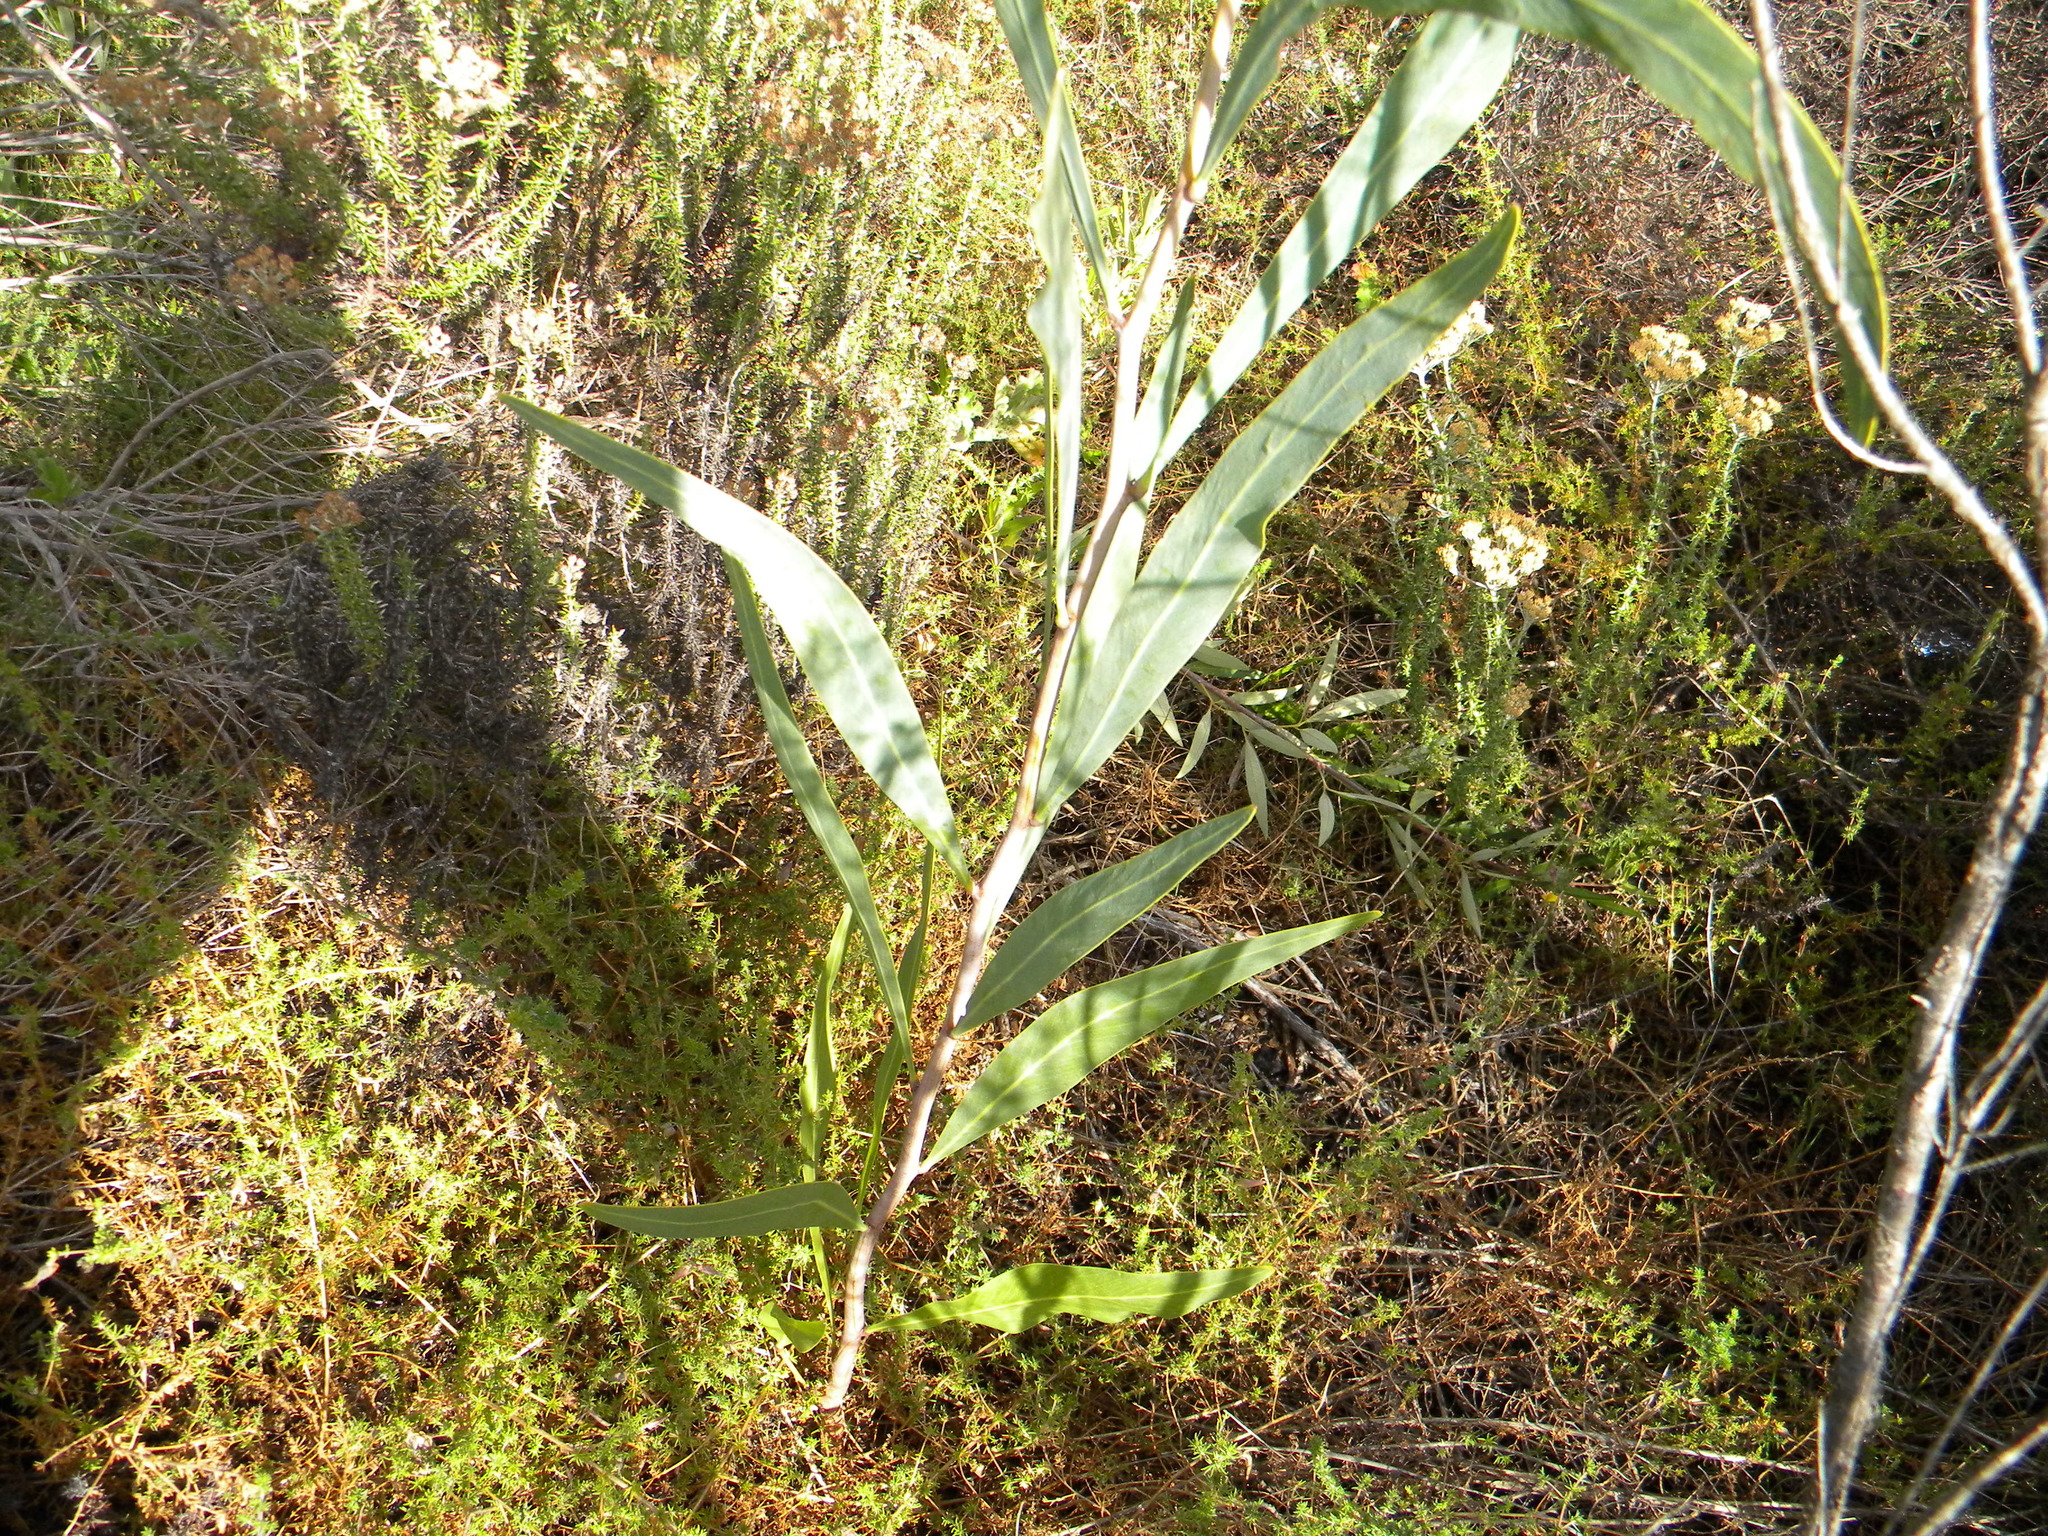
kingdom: Plantae
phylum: Tracheophyta
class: Magnoliopsida
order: Fabales
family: Fabaceae
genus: Acacia
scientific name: Acacia saligna
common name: Orange wattle
